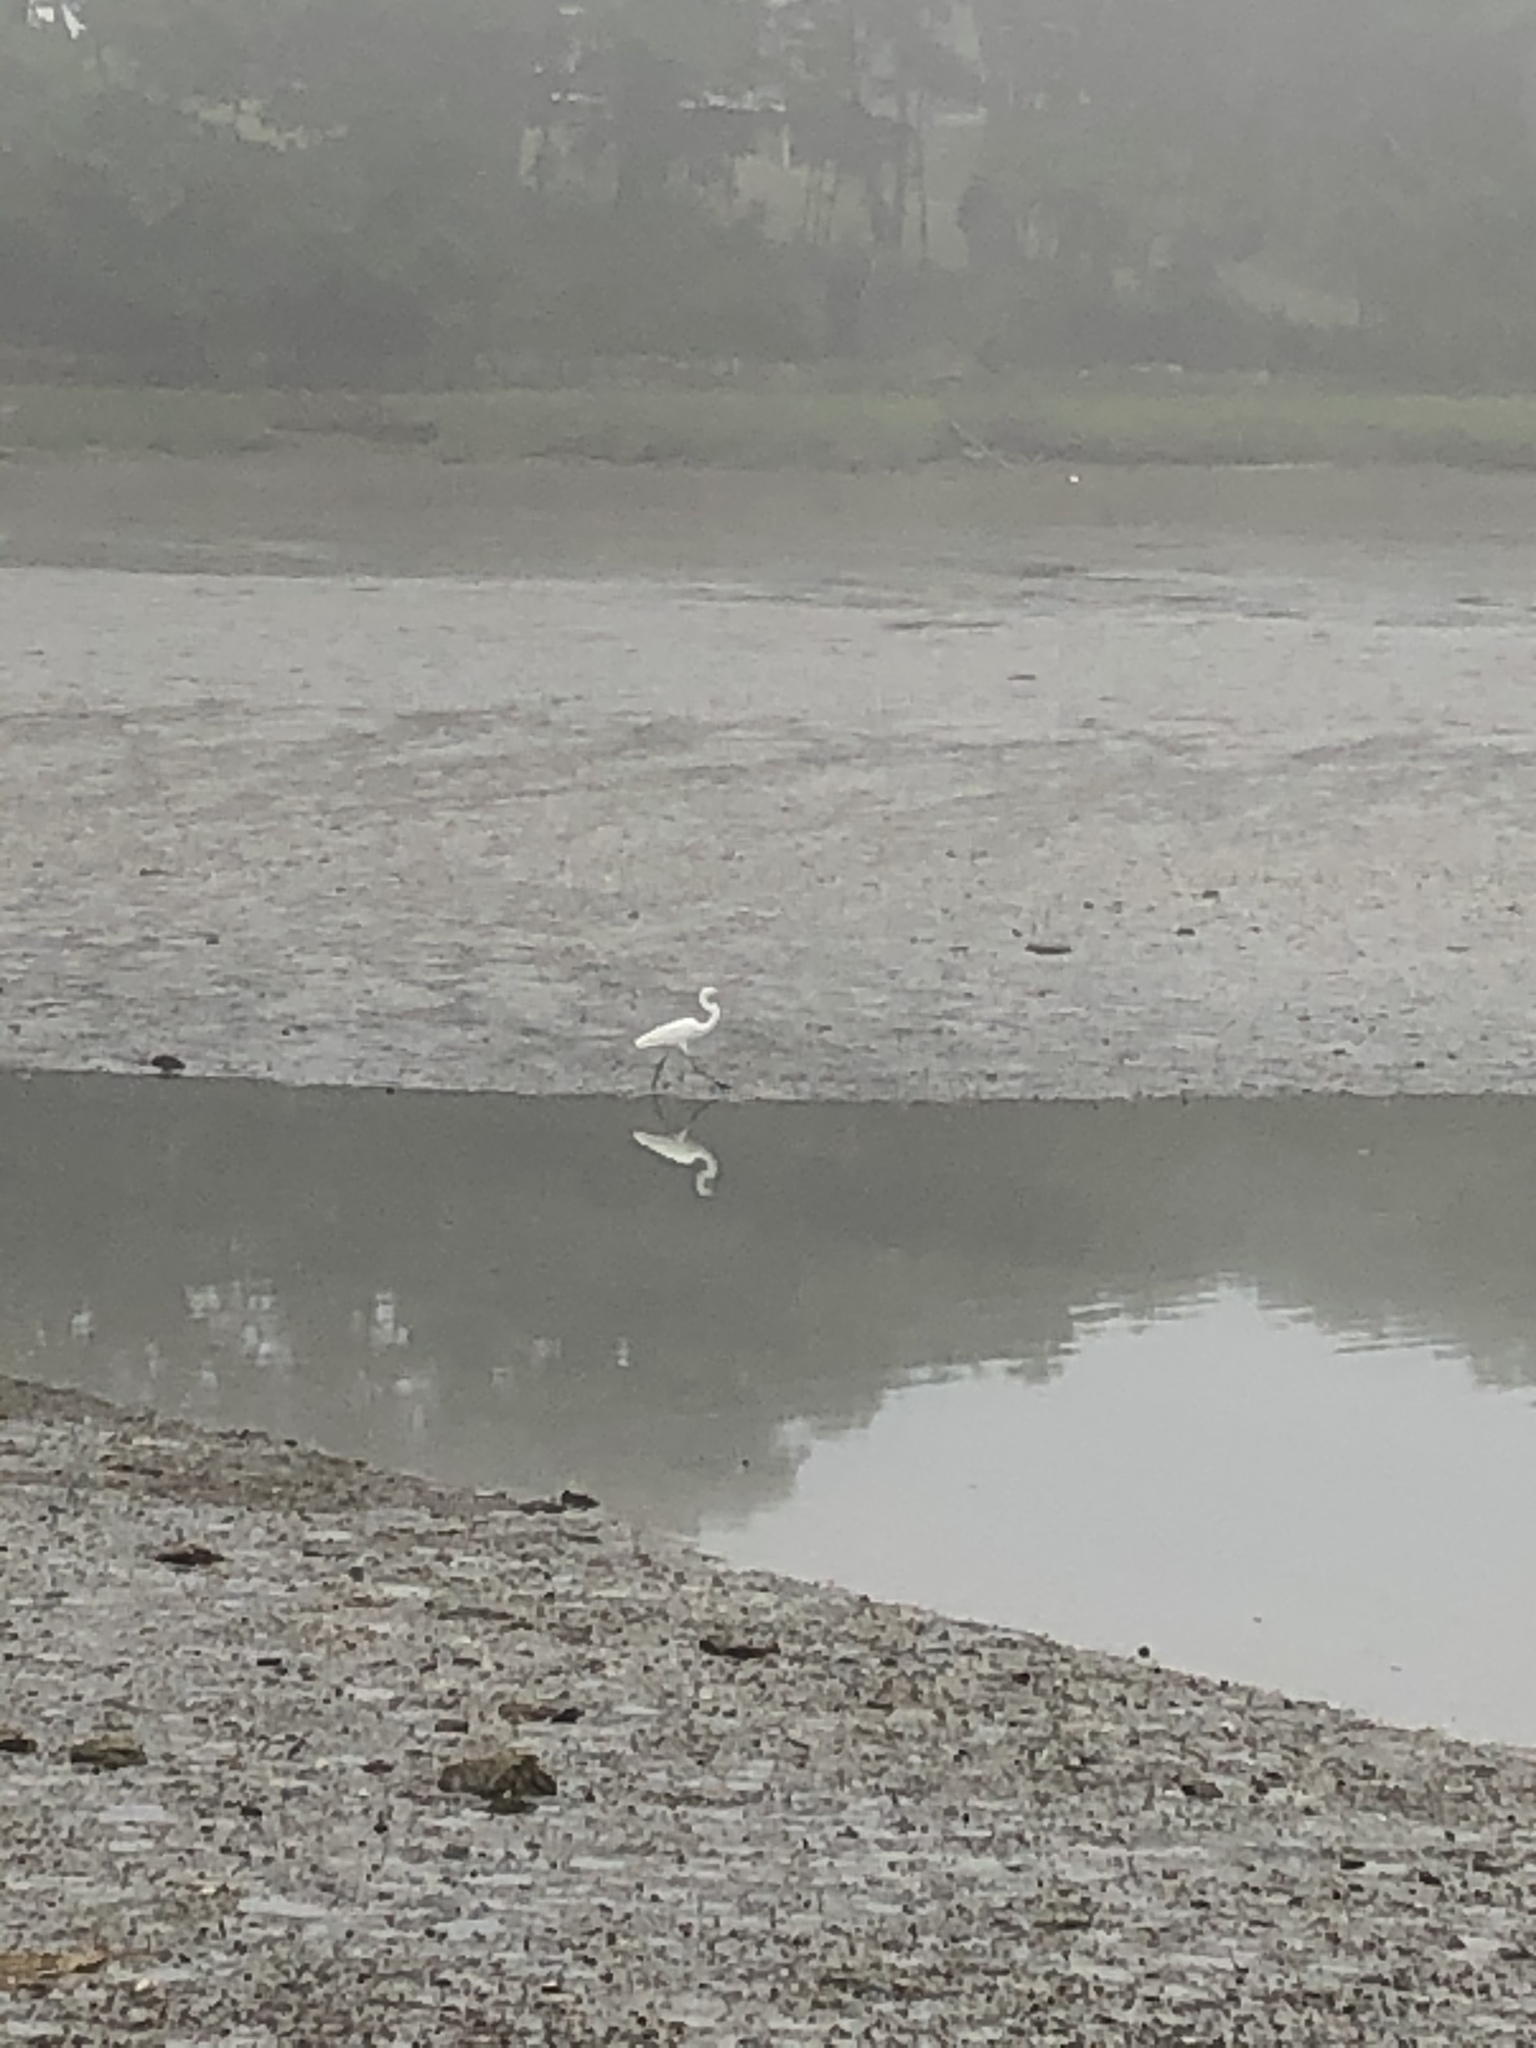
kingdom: Animalia
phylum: Chordata
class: Aves
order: Pelecaniformes
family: Ardeidae
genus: Ardea
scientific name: Ardea alba
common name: Great egret
